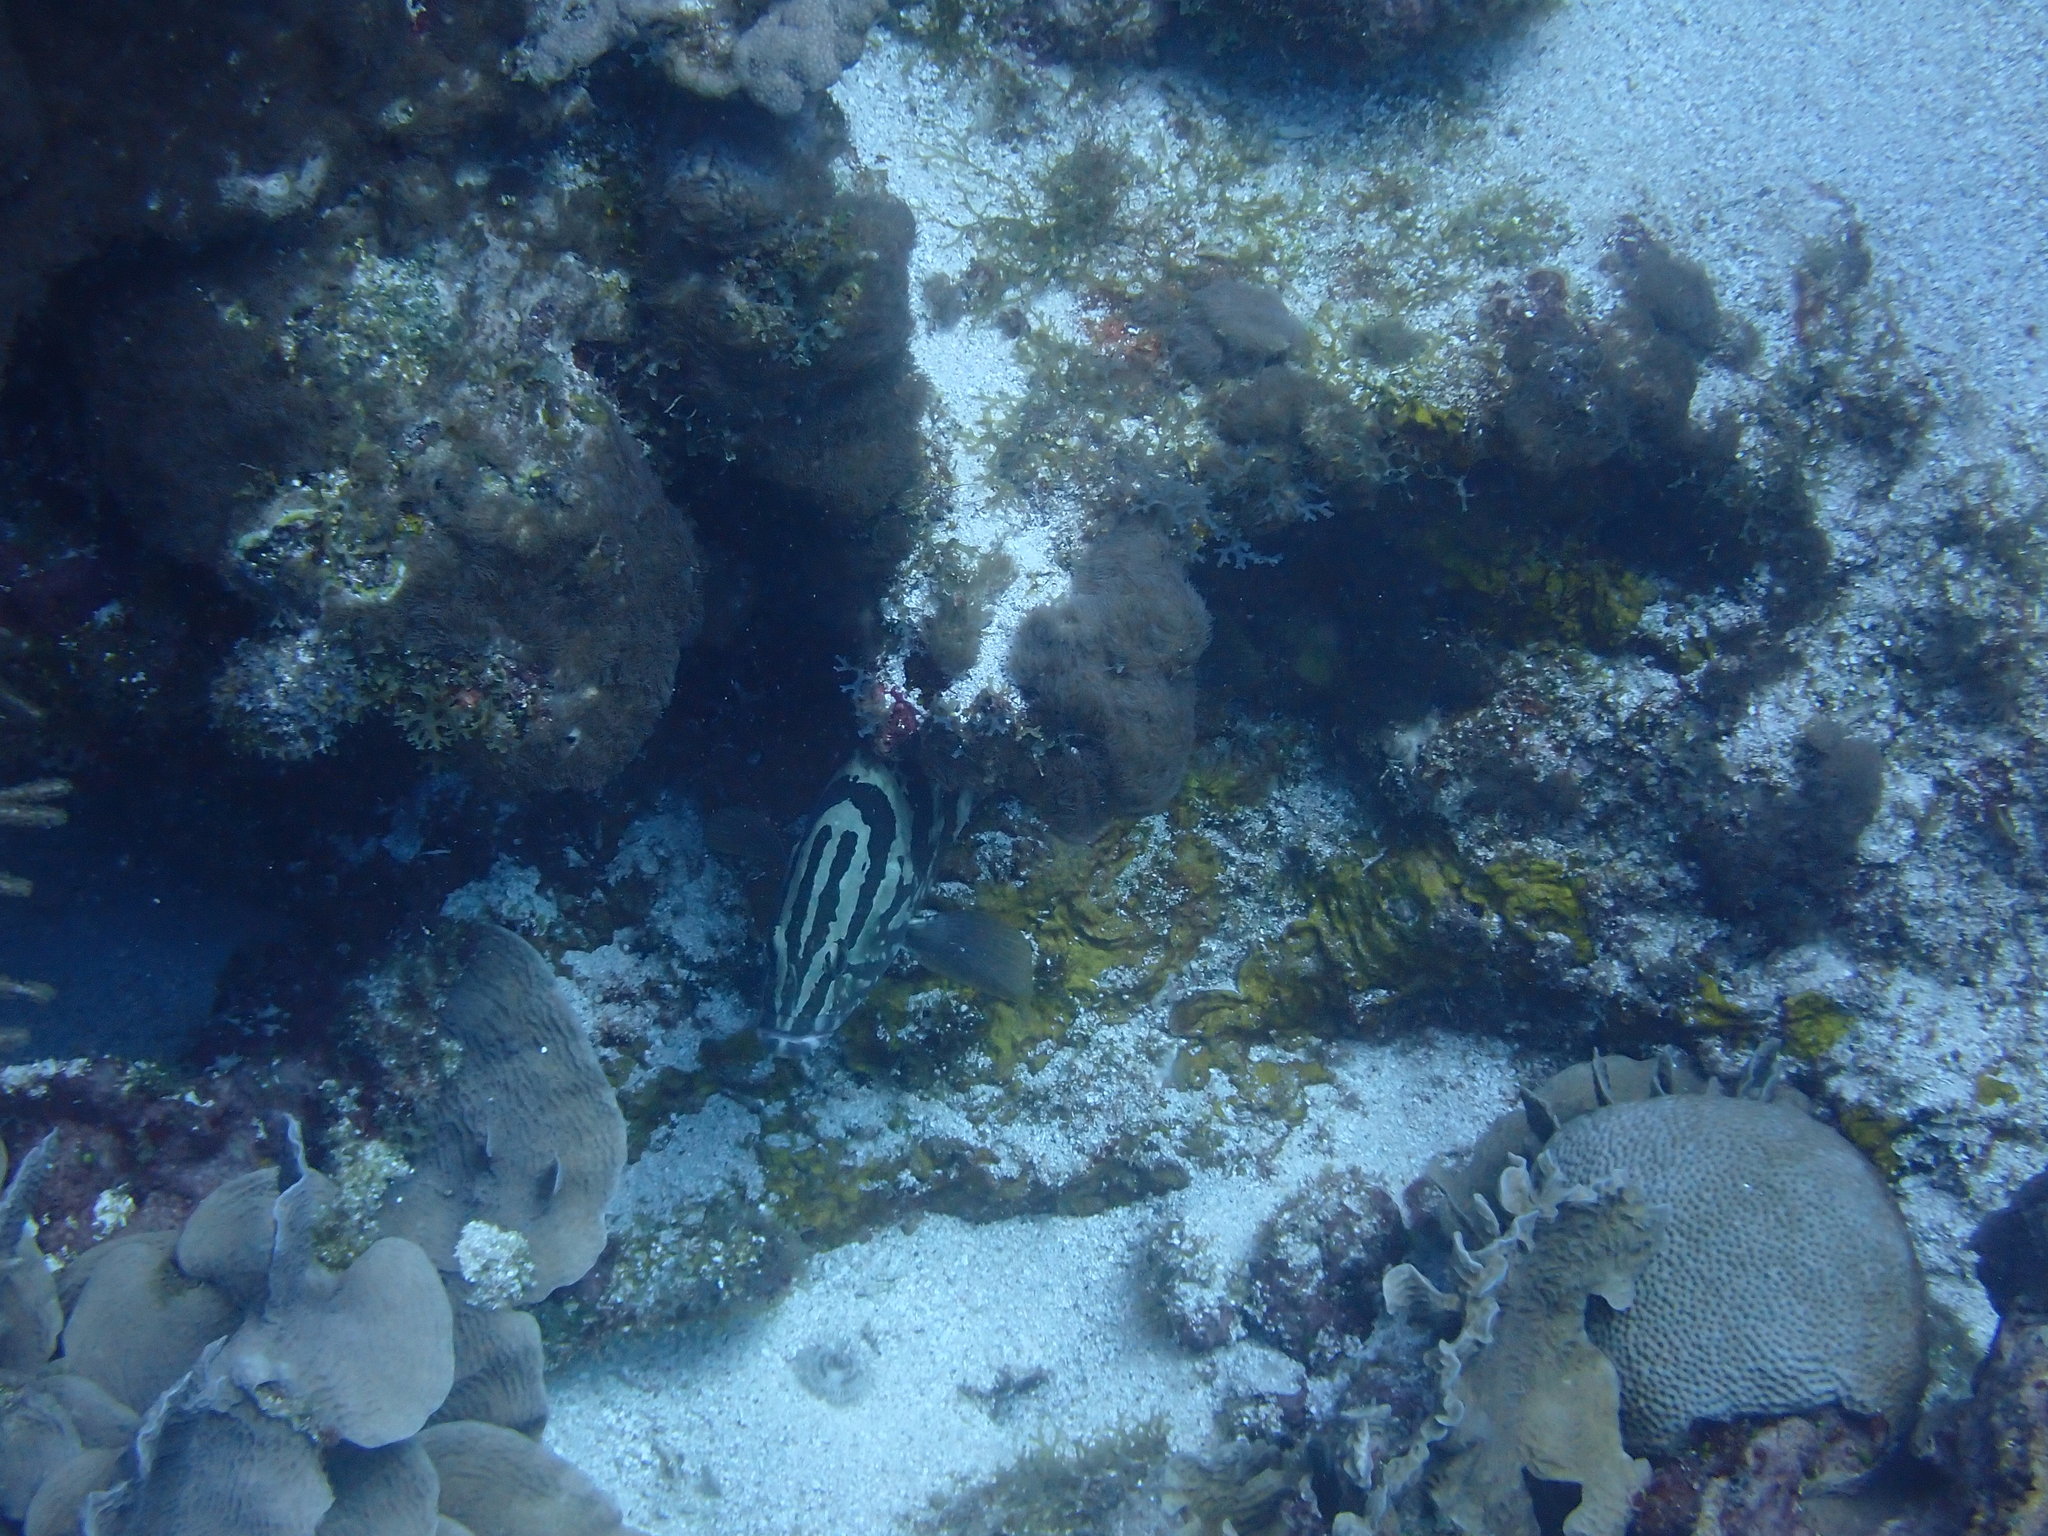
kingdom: Animalia
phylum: Chordata
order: Perciformes
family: Serranidae
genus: Epinephelus
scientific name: Epinephelus striatus
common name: Nassau grouper
